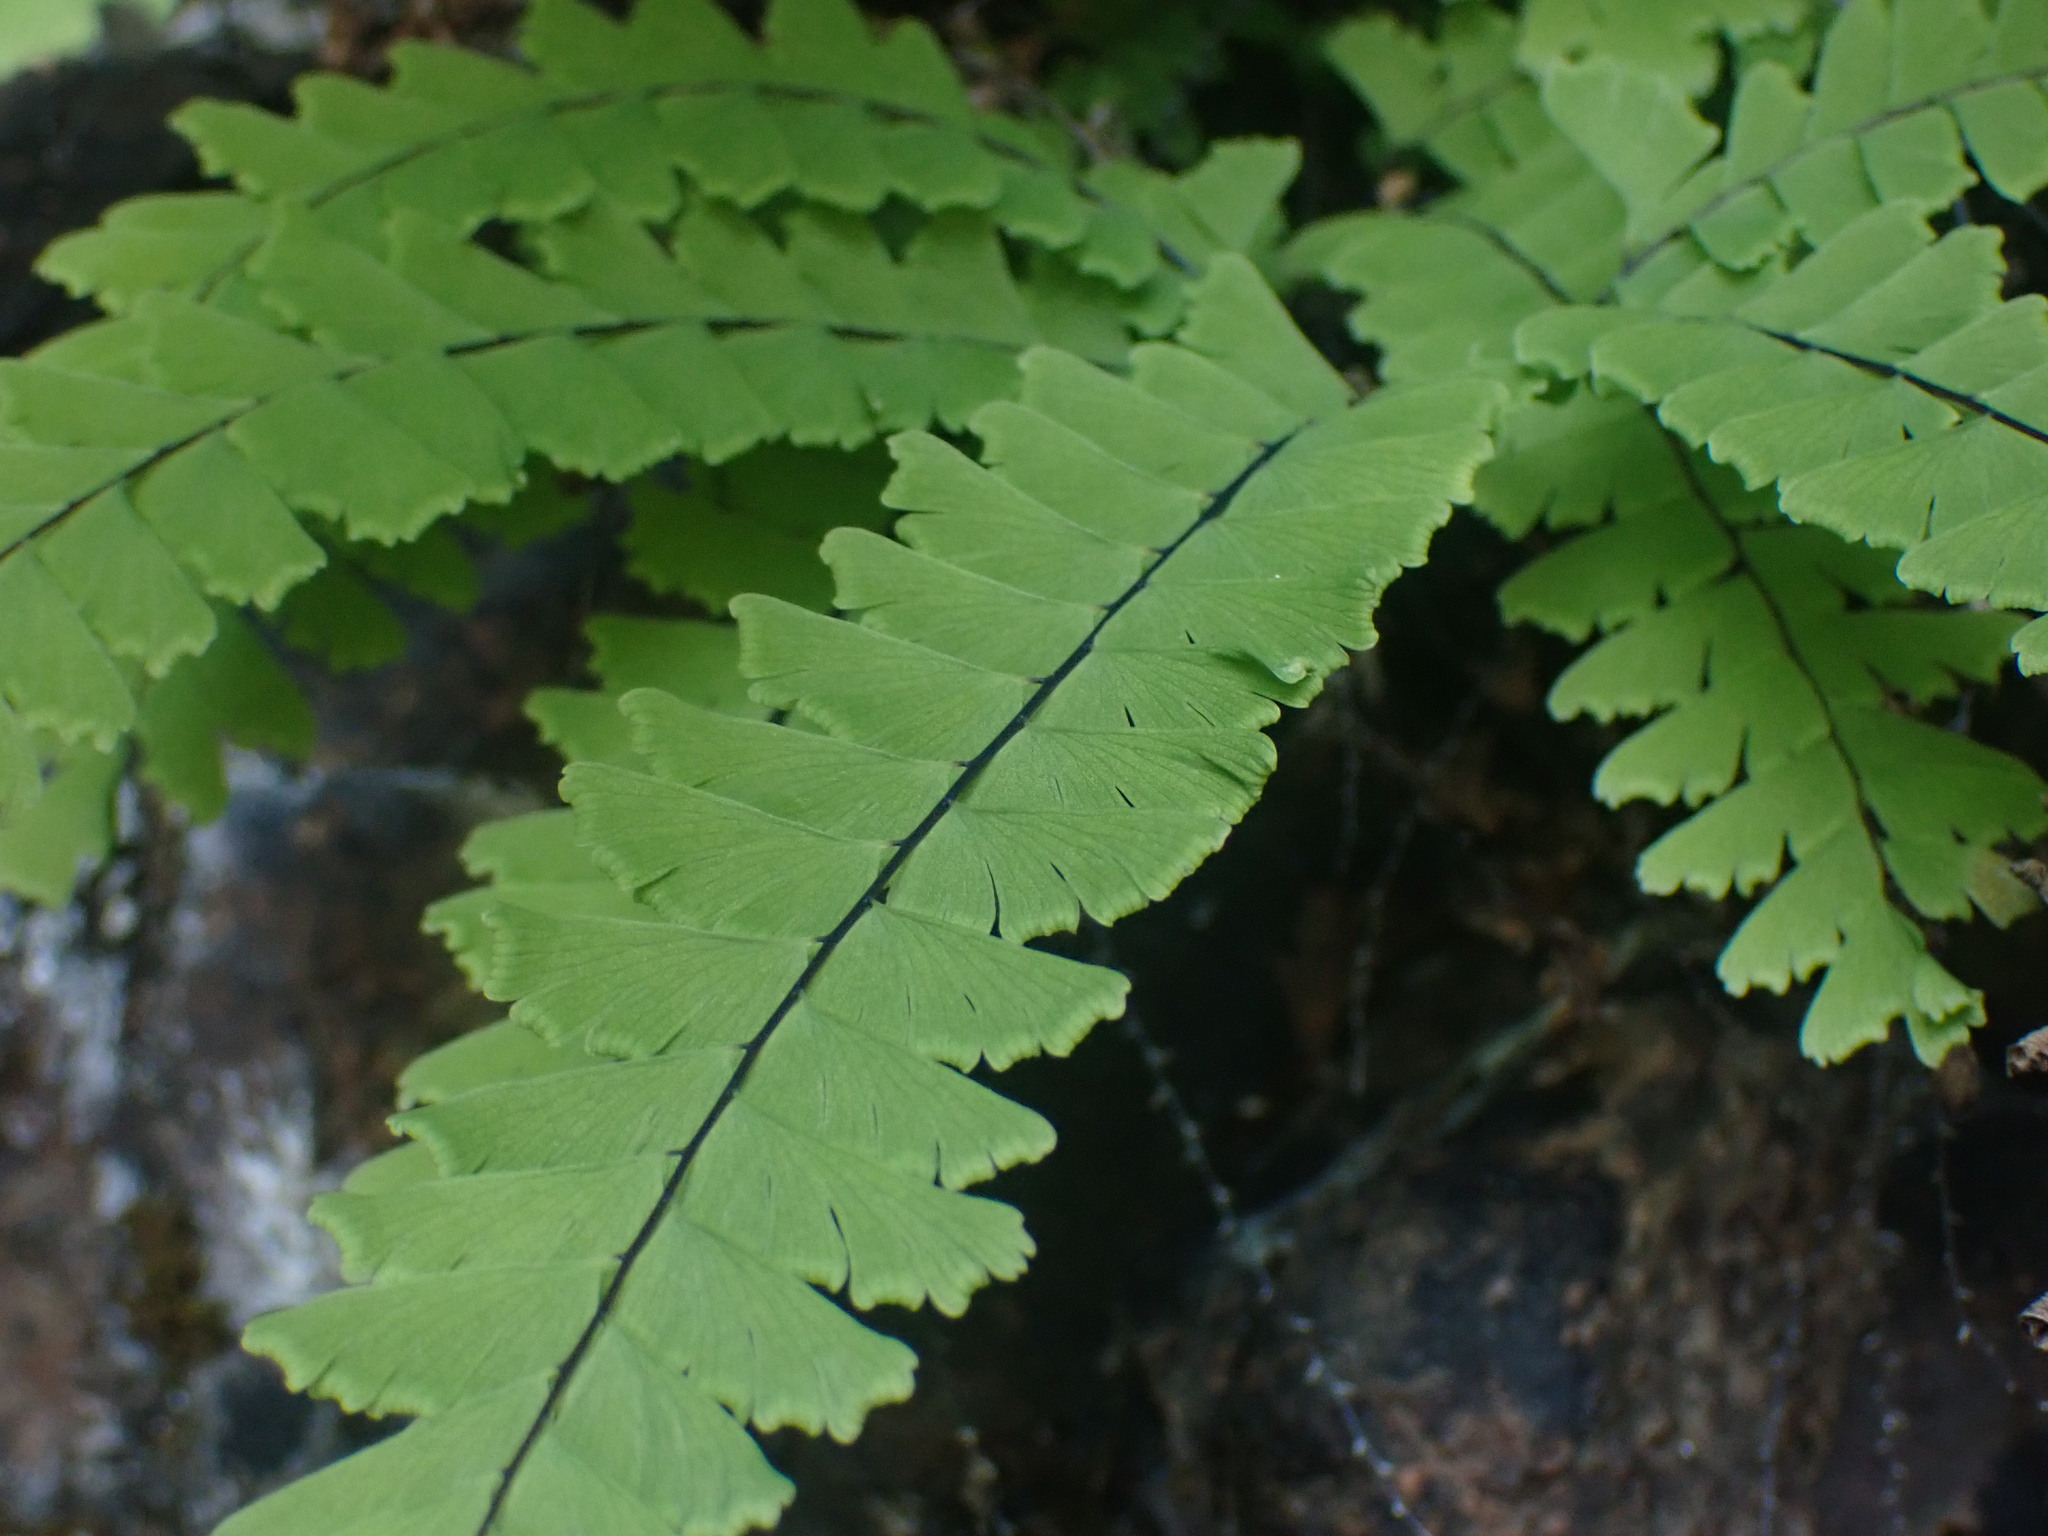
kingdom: Plantae
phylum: Tracheophyta
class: Polypodiopsida
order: Polypodiales
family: Pteridaceae
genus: Adiantum
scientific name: Adiantum aleuticum
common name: Aleutian maidenhair fern
